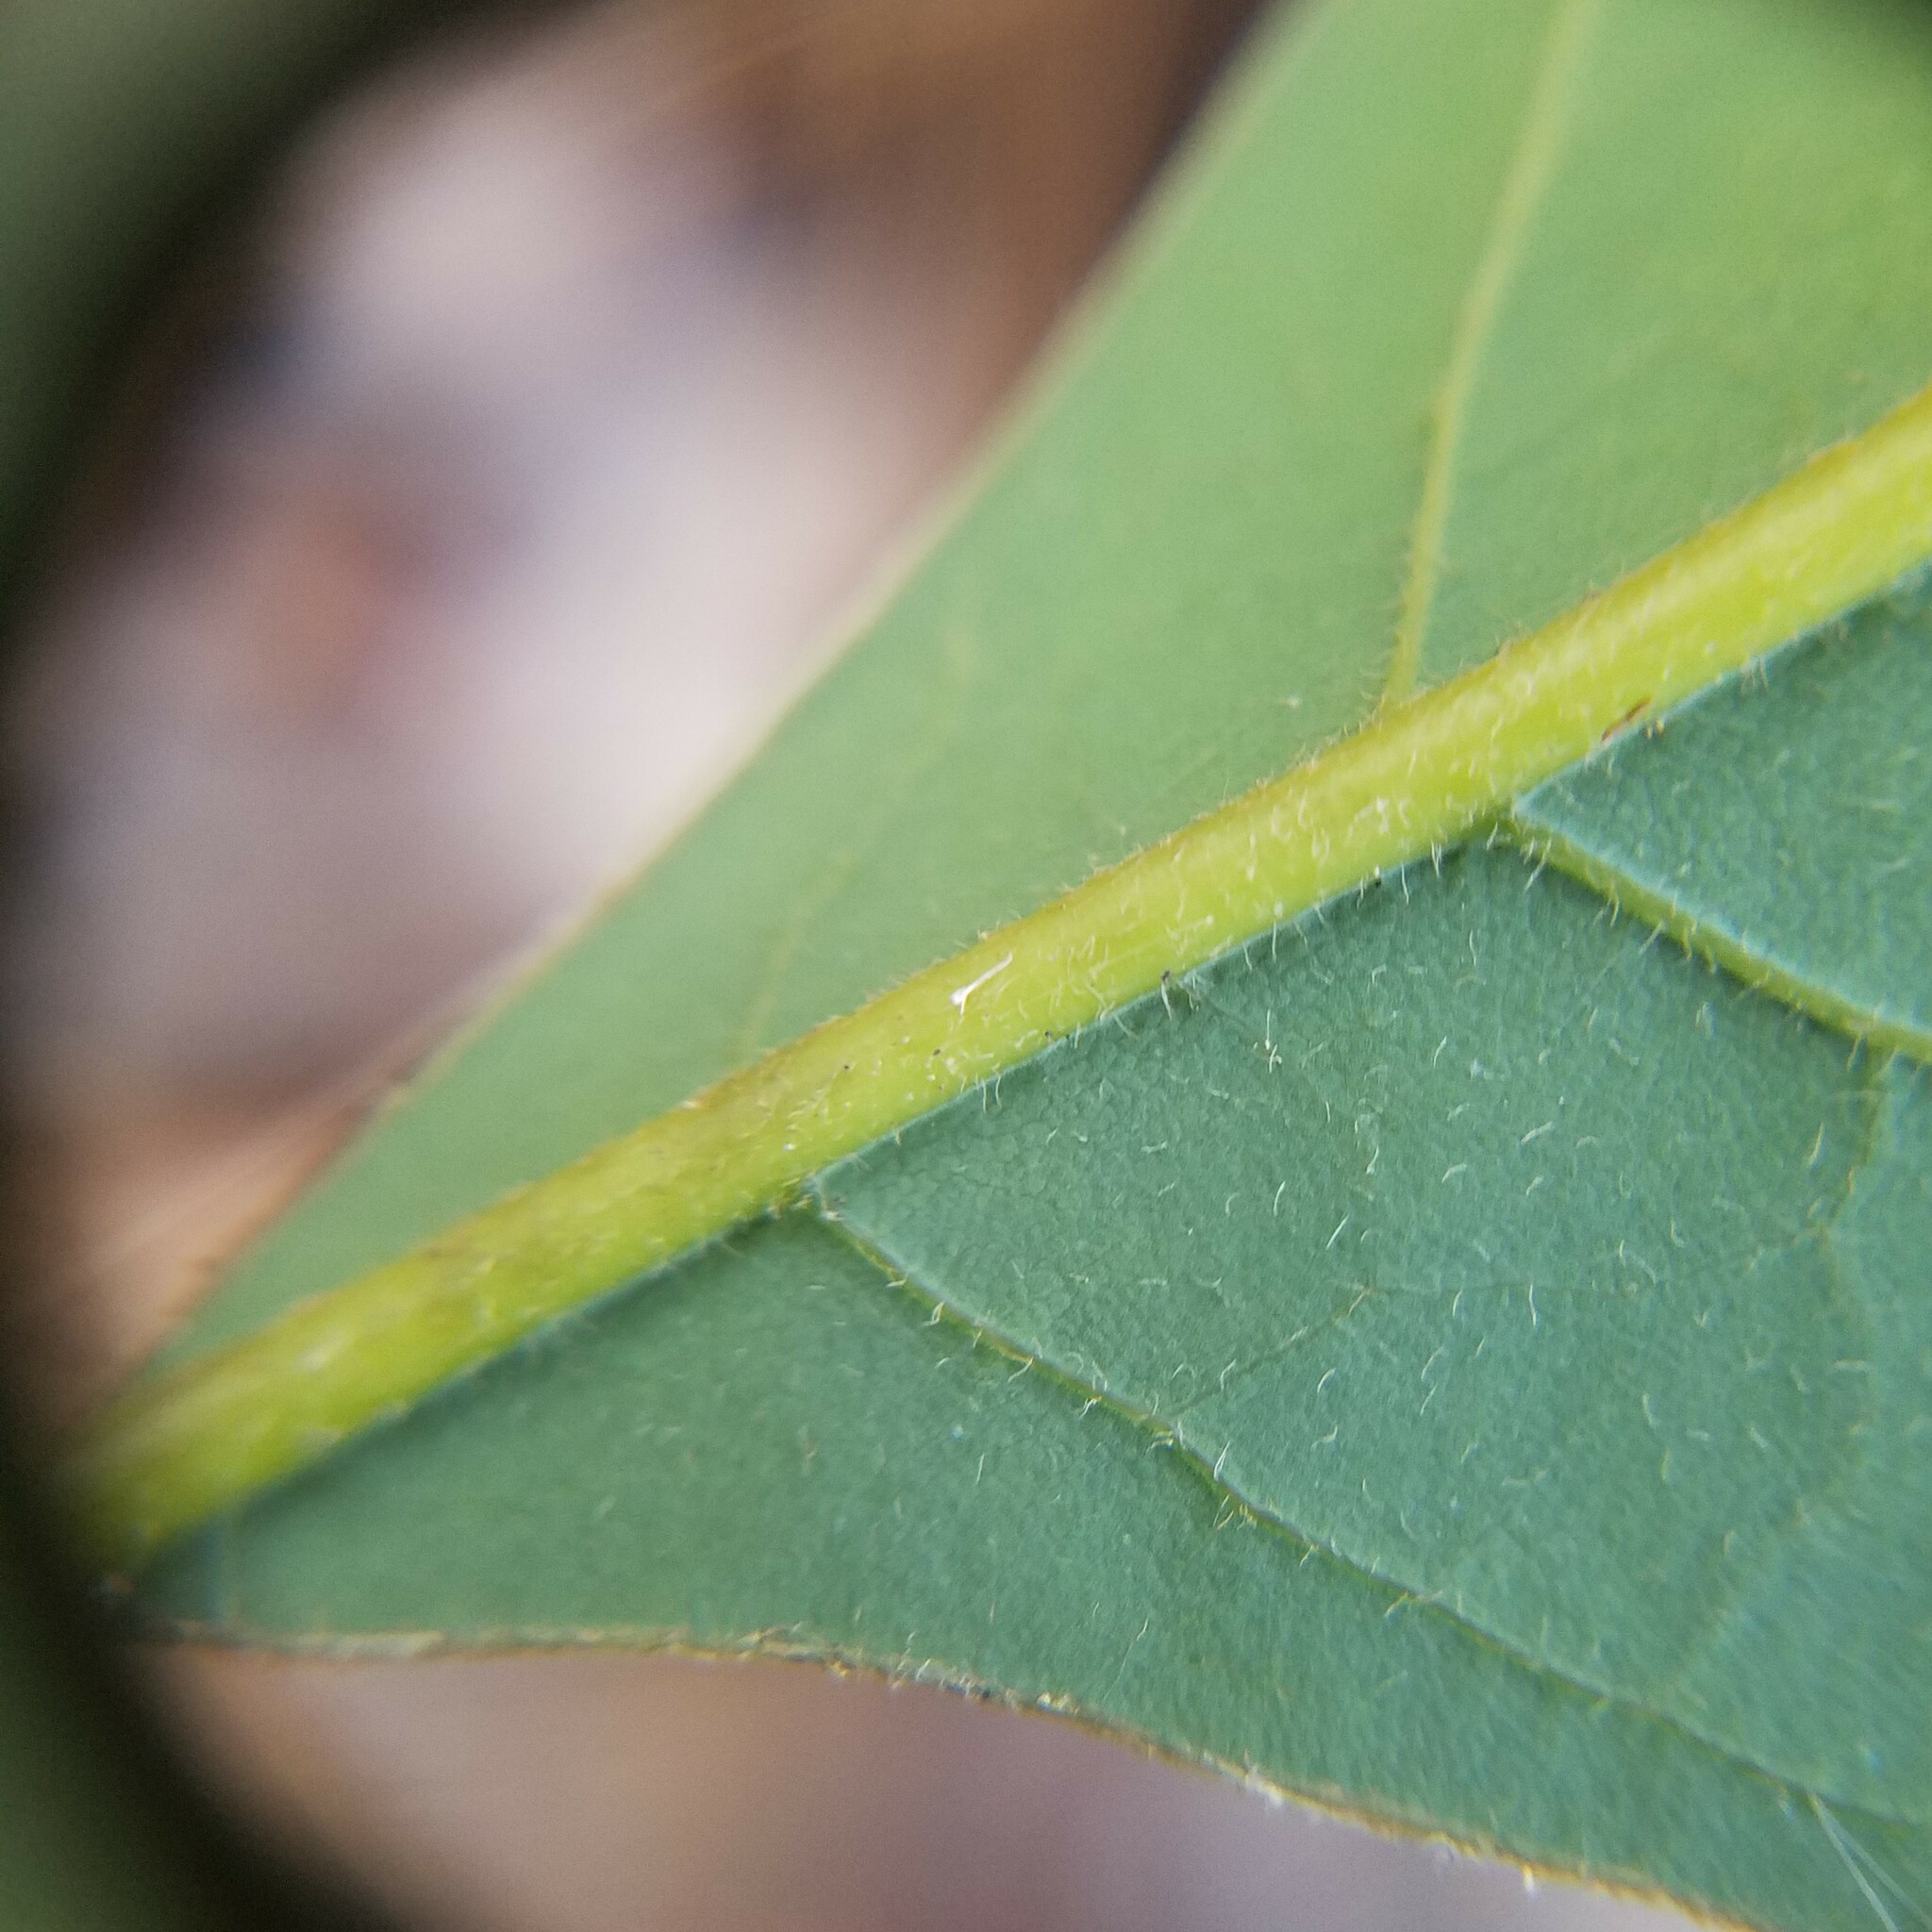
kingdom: Plantae
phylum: Tracheophyta
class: Magnoliopsida
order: Laurales
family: Lauraceae
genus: Persea
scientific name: Persea borbonia
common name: Redbay
